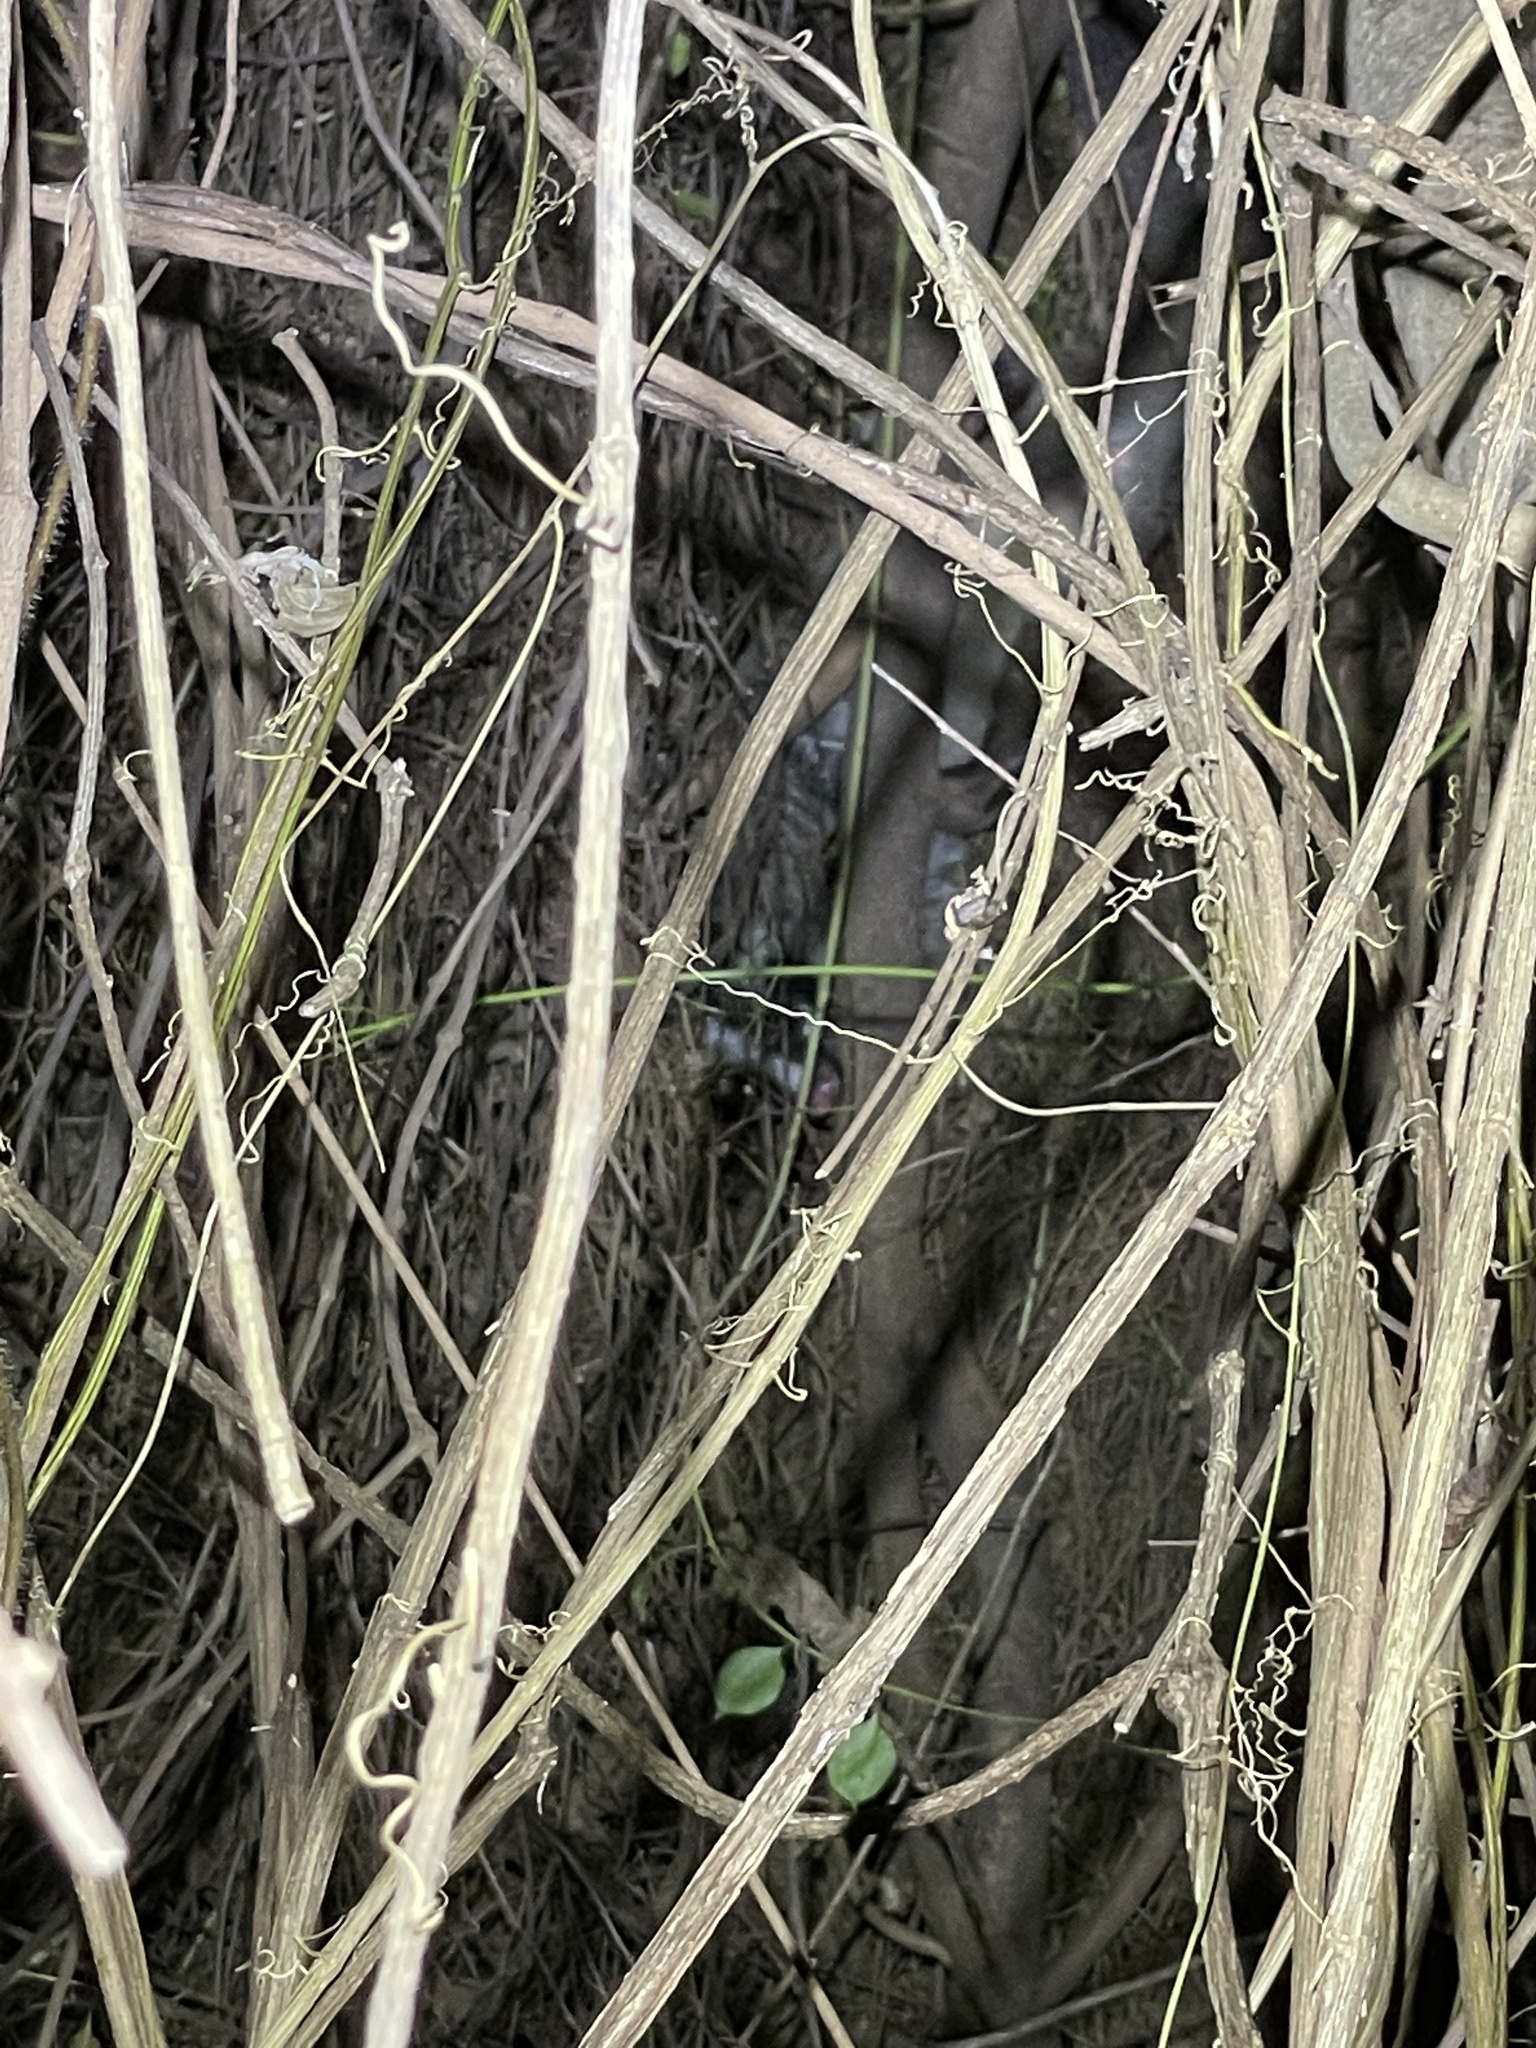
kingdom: Animalia
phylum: Chordata
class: Mammalia
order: Carnivora
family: Viverridae
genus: Paguma
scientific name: Paguma larvata
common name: Masked palm civet
